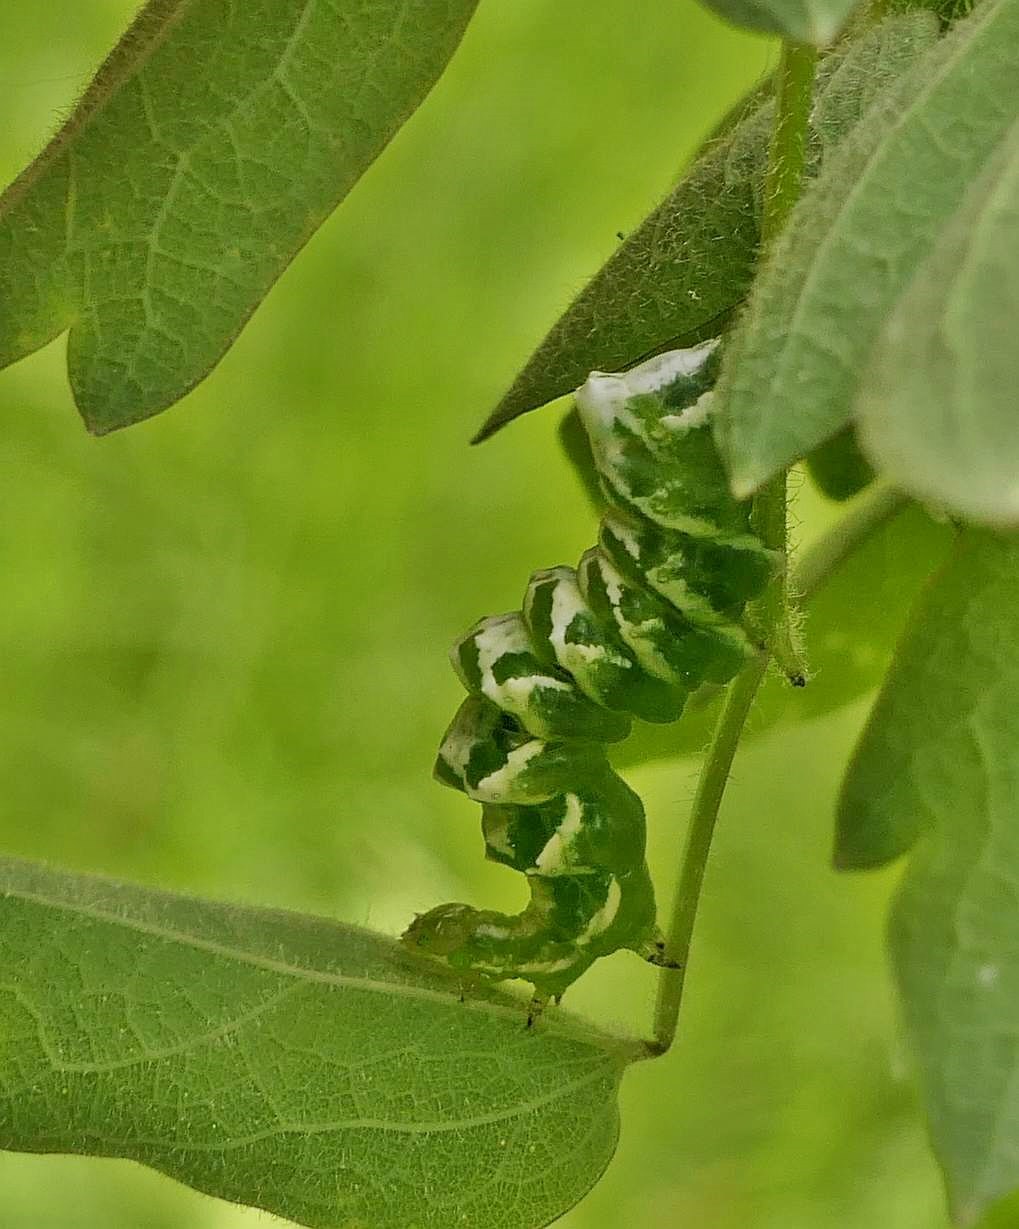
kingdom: Animalia
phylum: Arthropoda
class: Insecta
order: Lepidoptera
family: Noctuidae
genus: Eosphoropteryx
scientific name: Eosphoropteryx thyatyroides
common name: Pinkpatched looper moth
